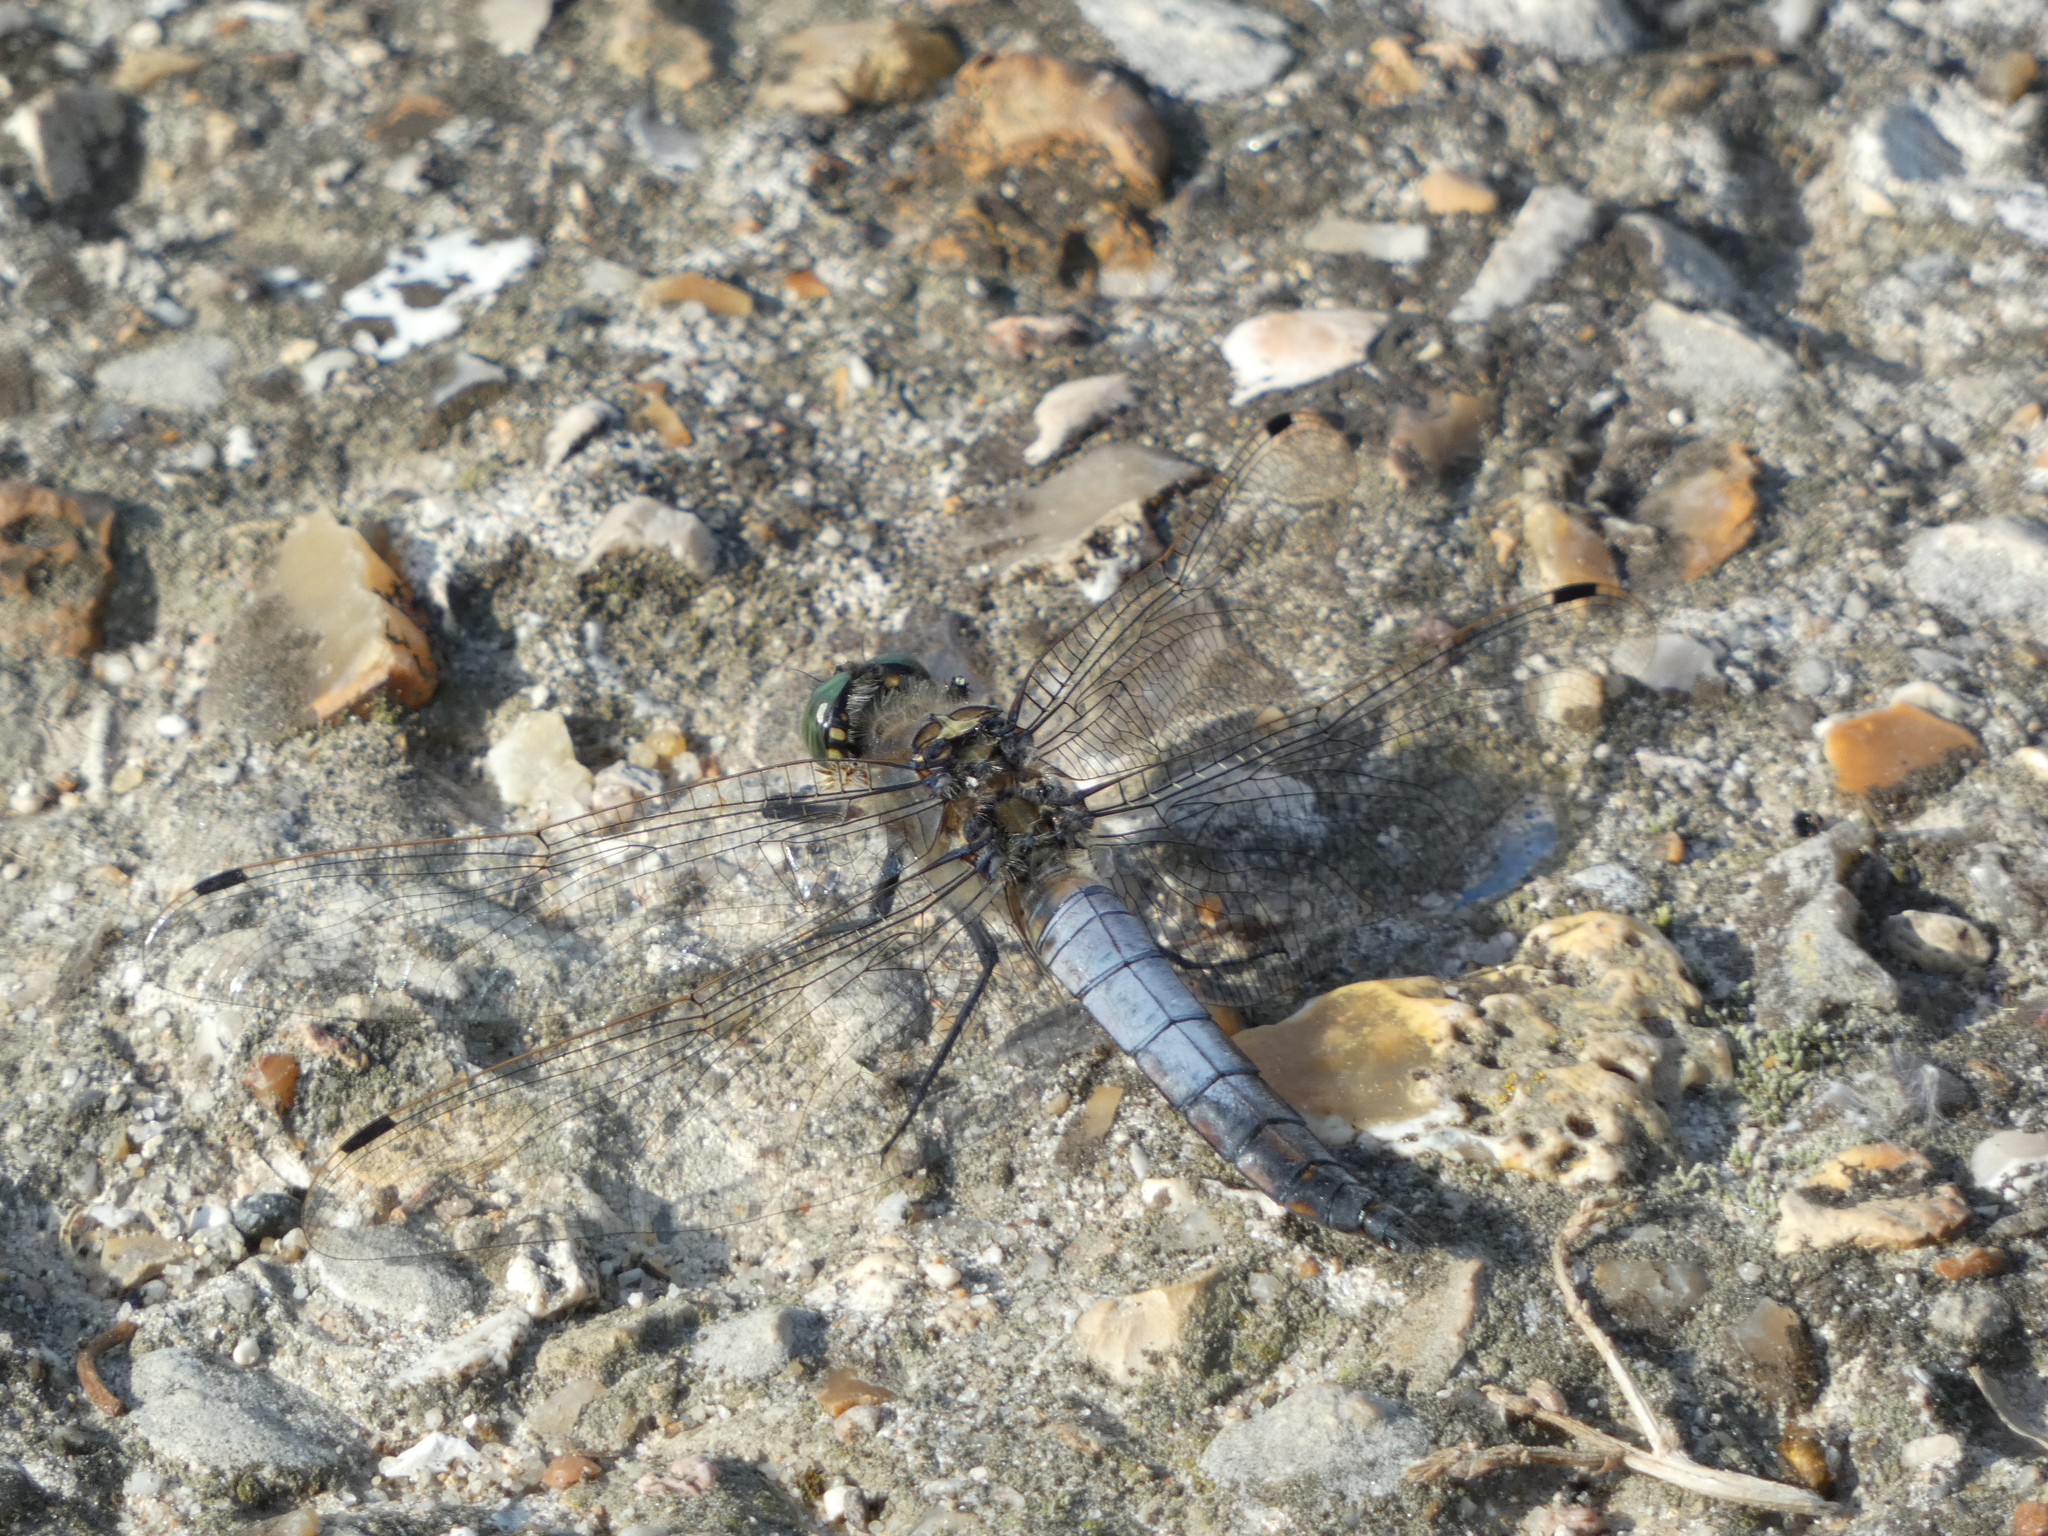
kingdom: Animalia
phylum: Arthropoda
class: Insecta
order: Odonata
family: Libellulidae
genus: Orthetrum
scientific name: Orthetrum cancellatum
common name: Black-tailed skimmer
